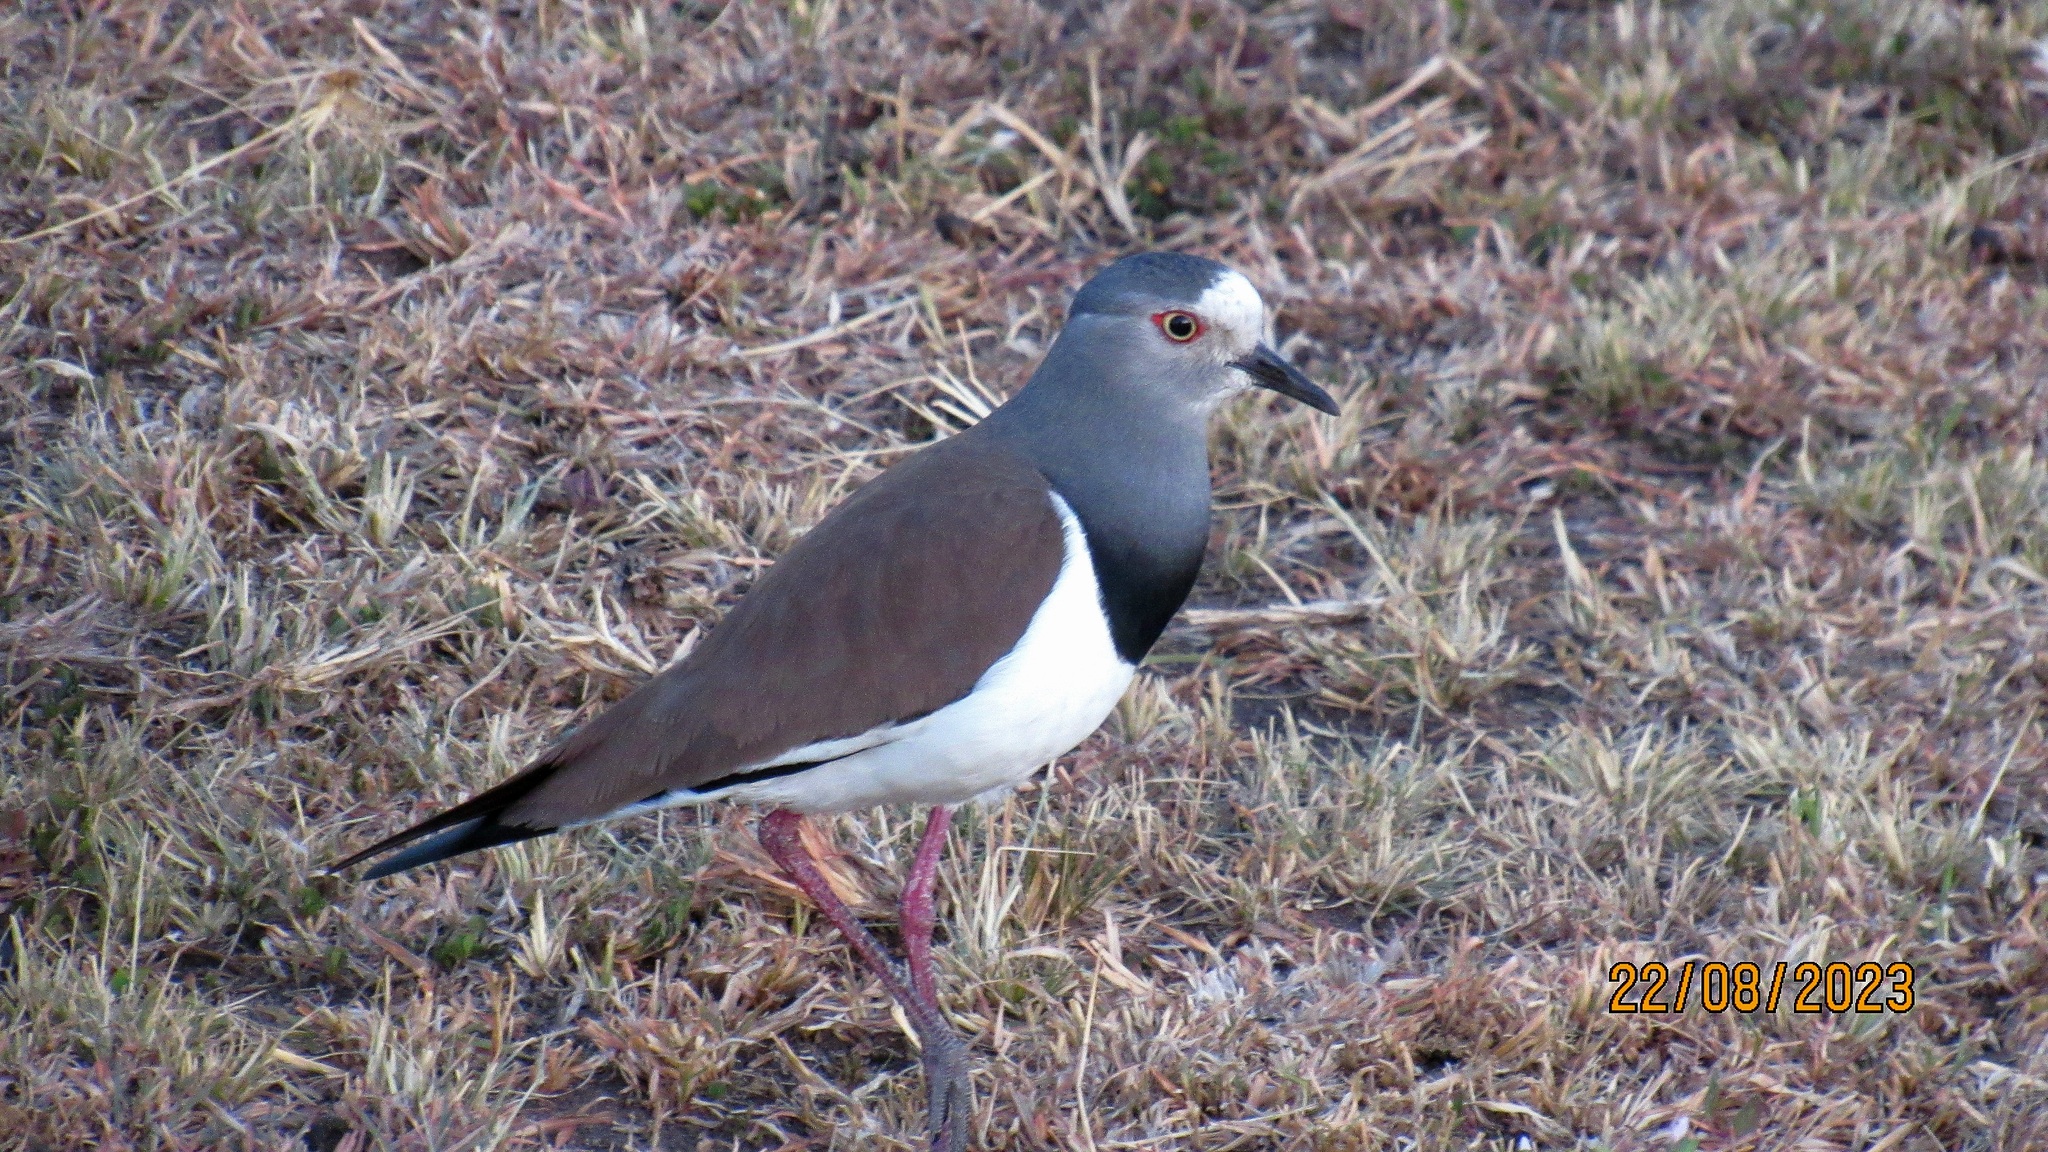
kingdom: Animalia
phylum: Chordata
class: Aves
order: Charadriiformes
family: Charadriidae
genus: Vanellus
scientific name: Vanellus melanopterus
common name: Black-winged lapwing
